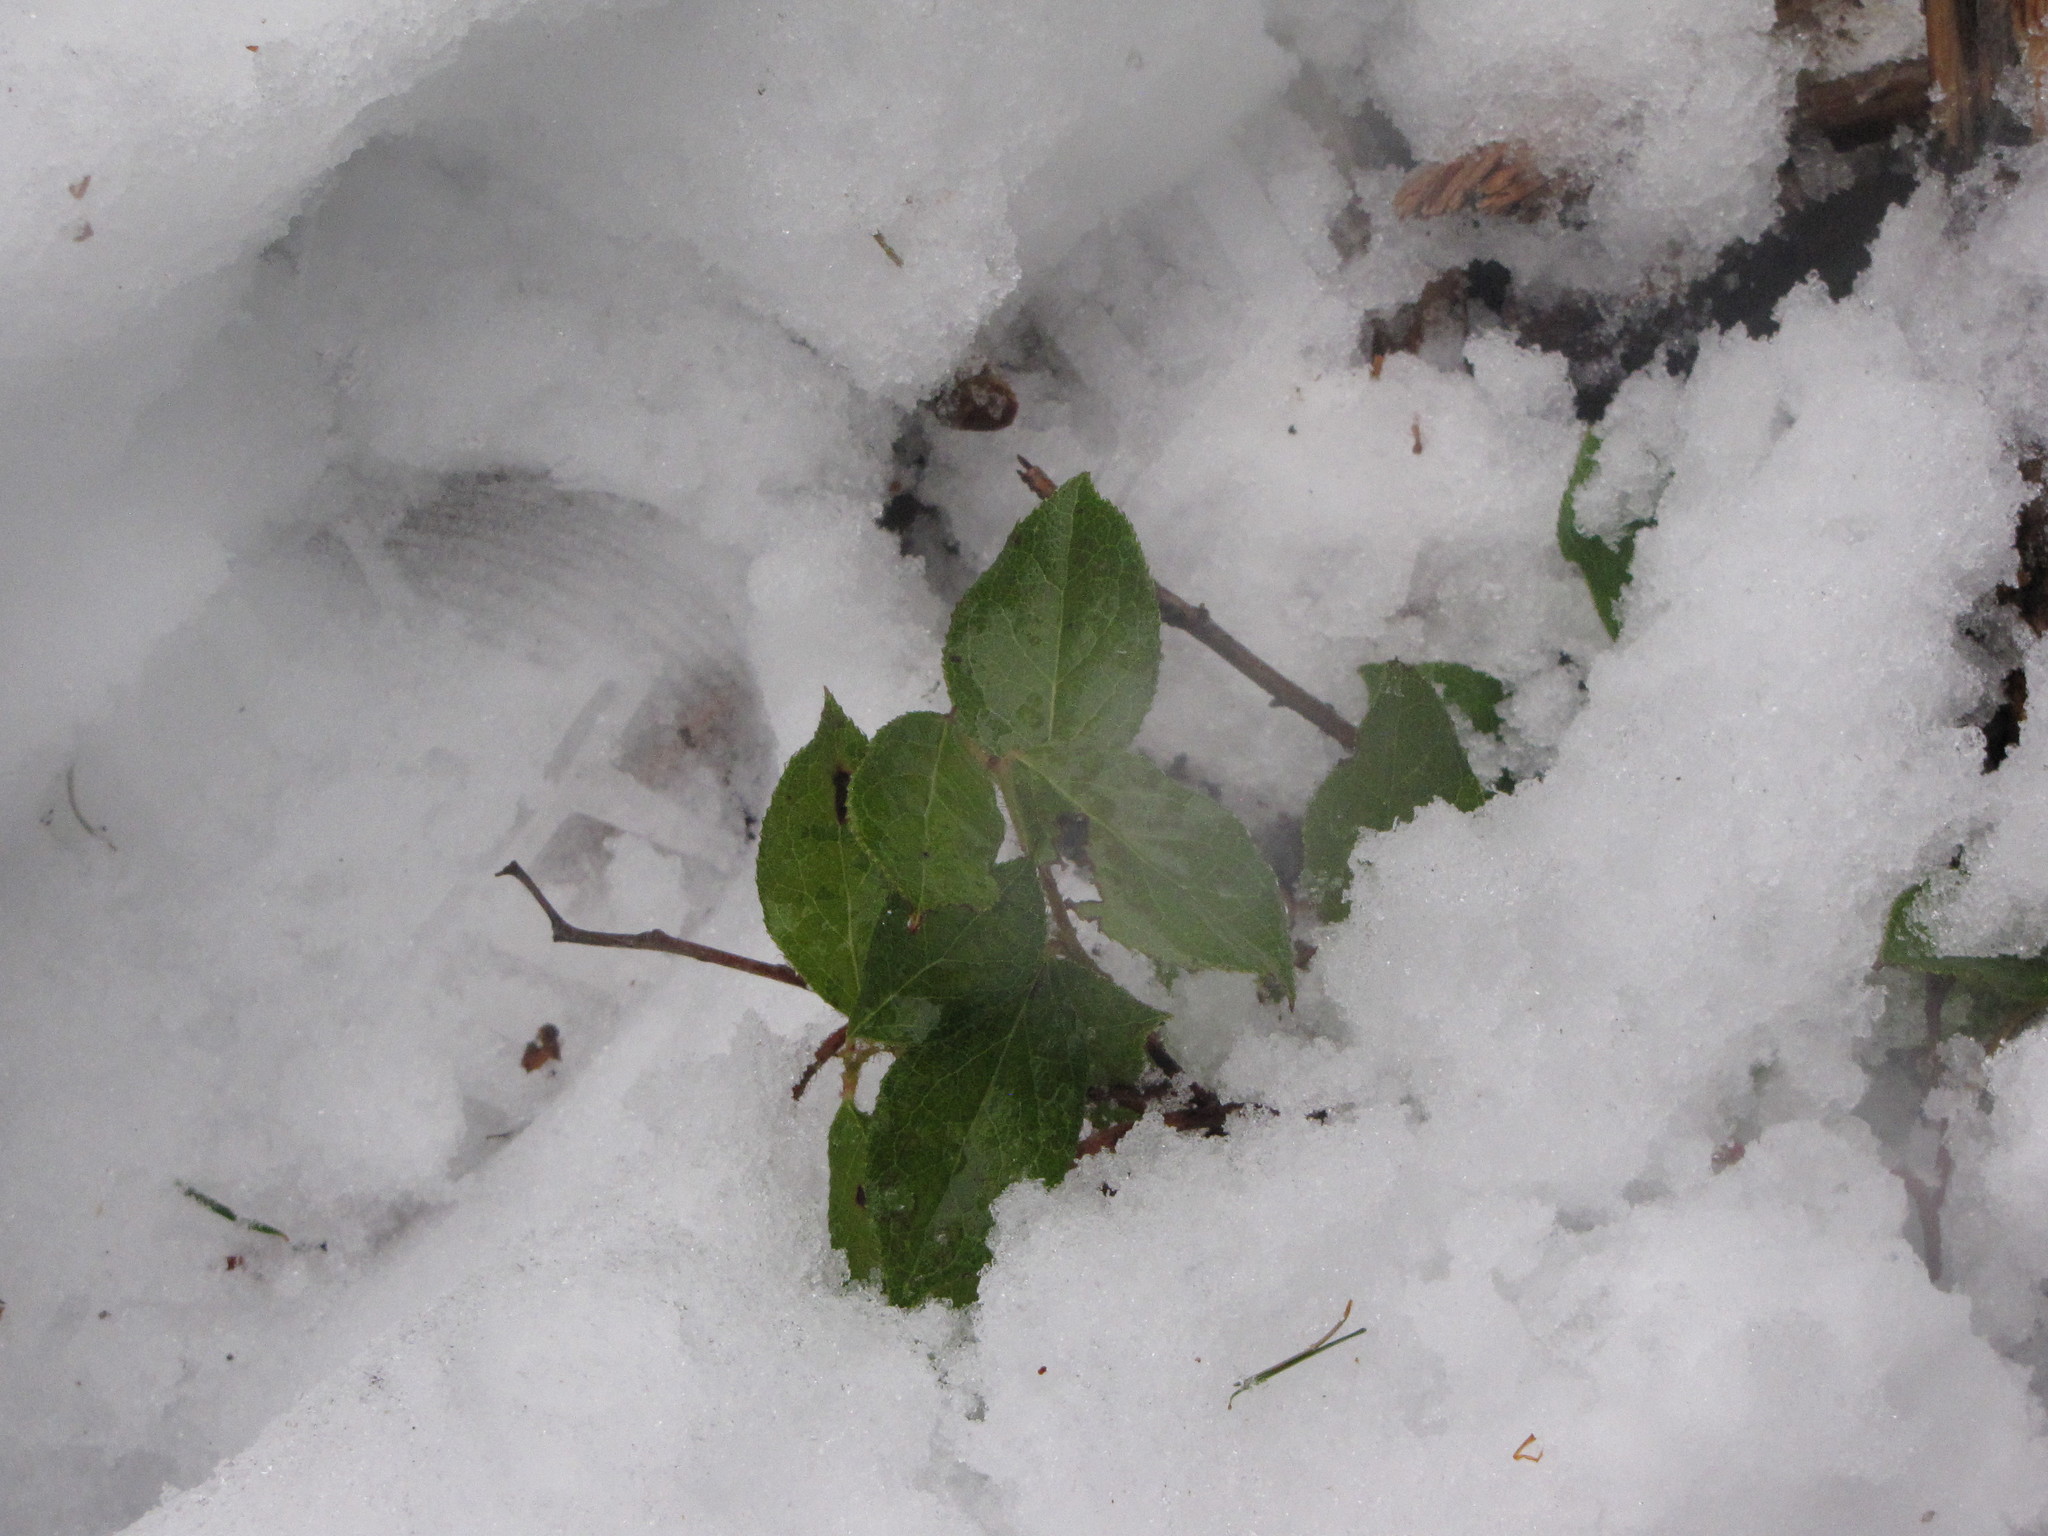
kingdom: Plantae
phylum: Tracheophyta
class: Magnoliopsida
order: Ericales
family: Ericaceae
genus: Gaultheria
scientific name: Gaultheria shallon
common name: Shallon
